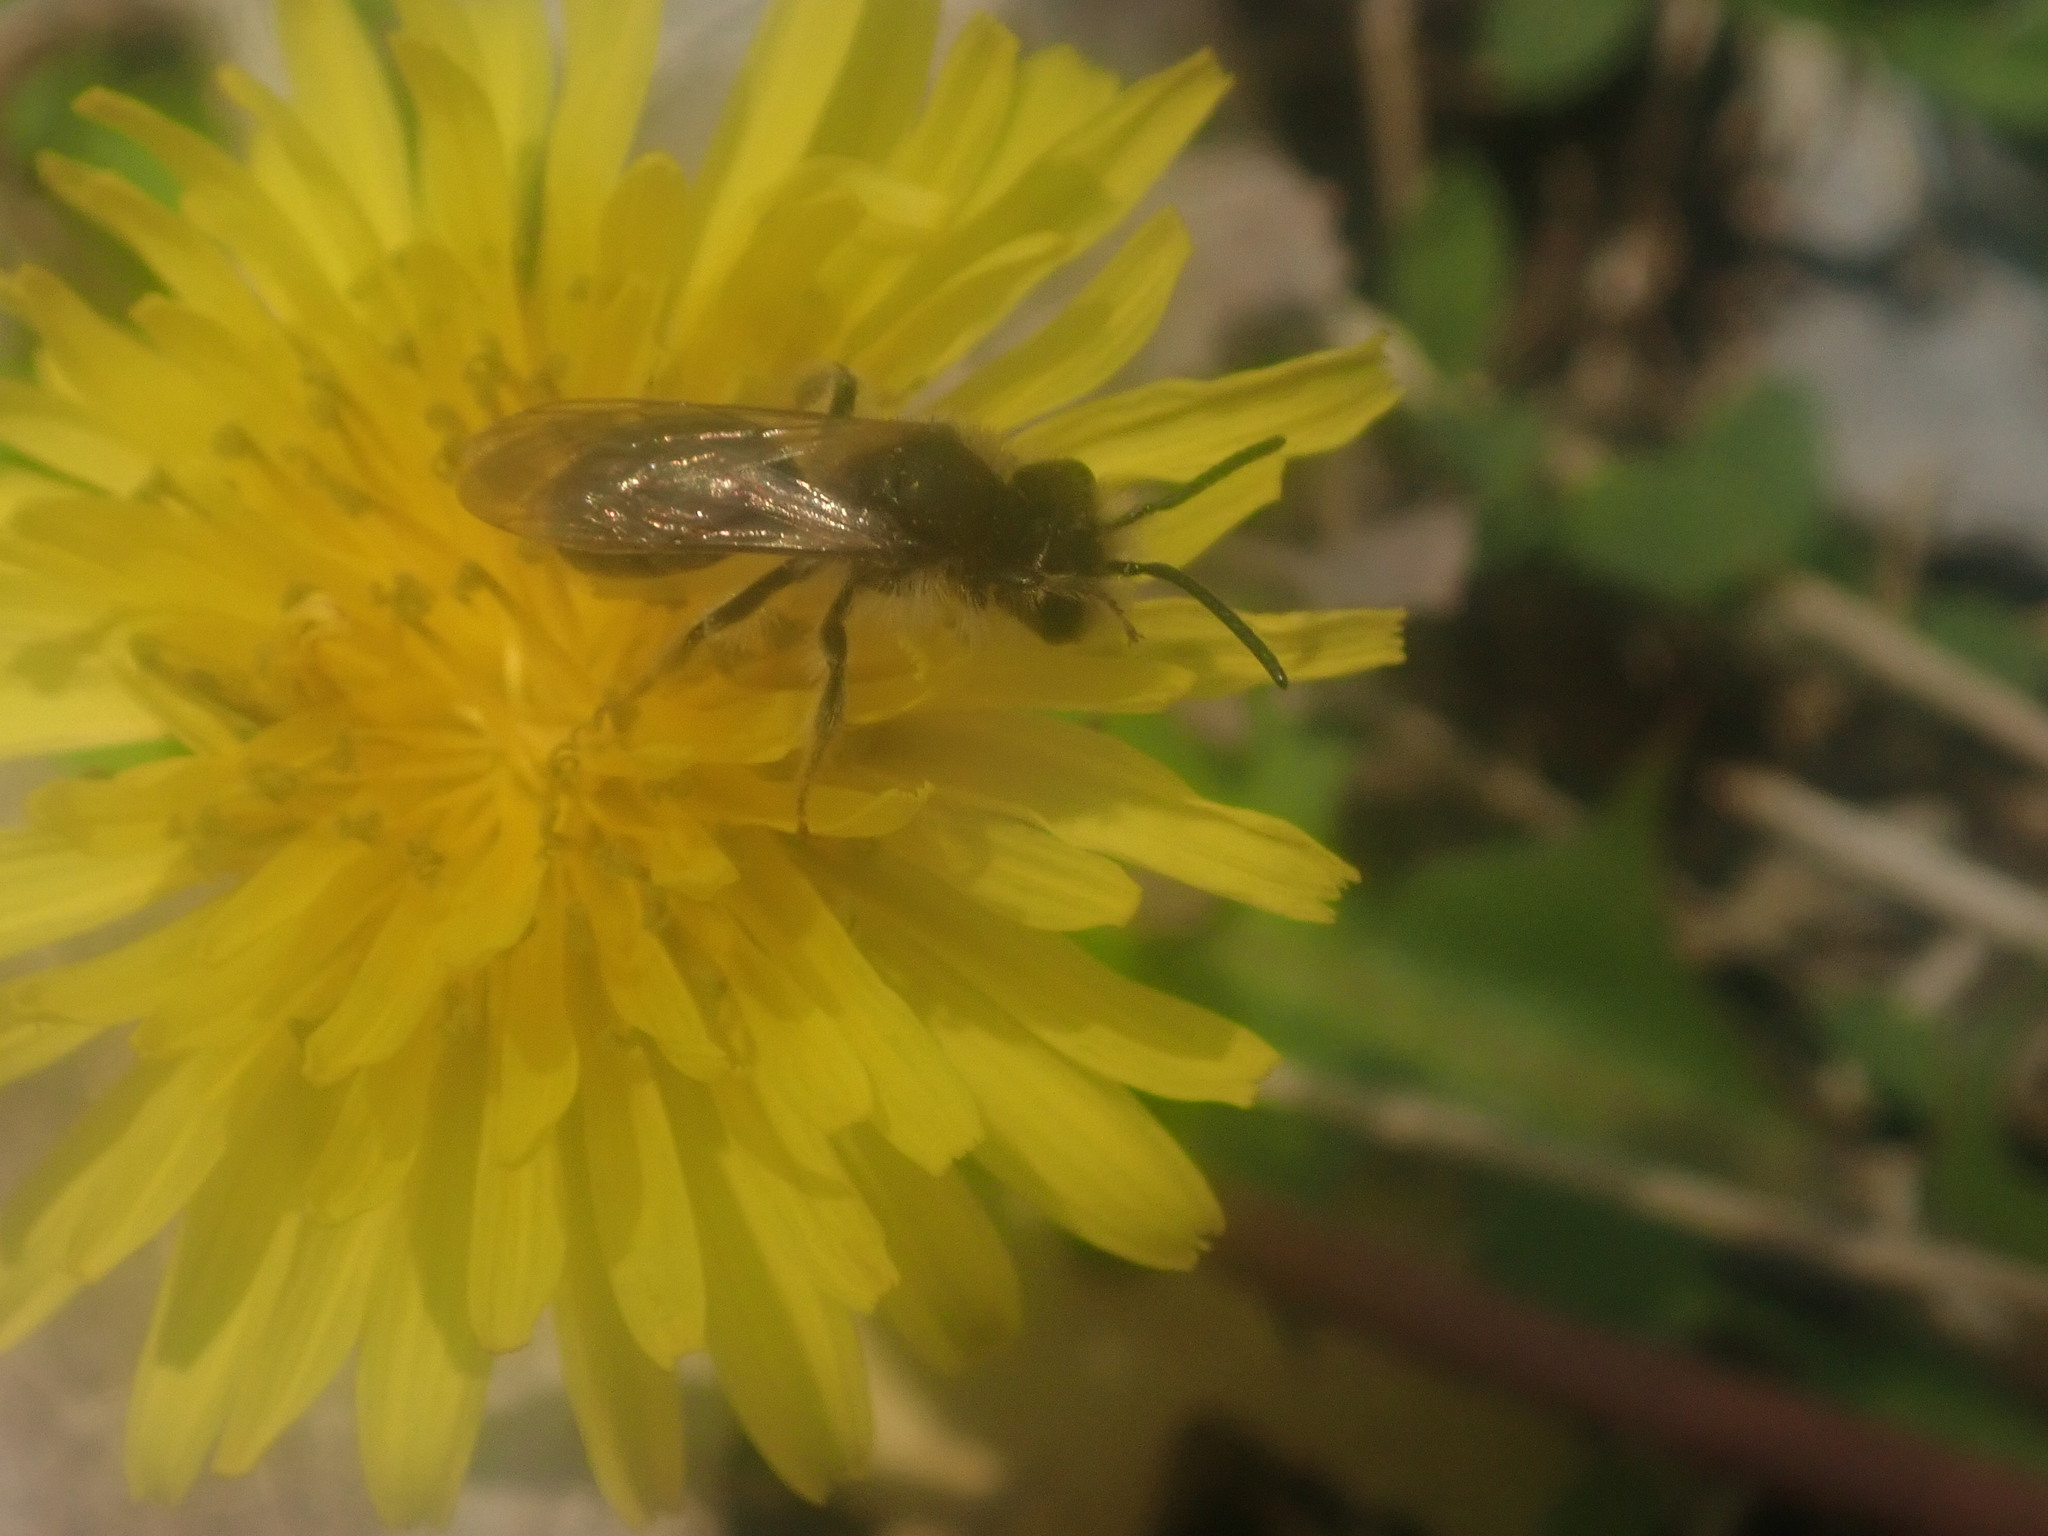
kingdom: Animalia
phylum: Arthropoda
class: Insecta
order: Hymenoptera
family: Andrenidae
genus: Andrena
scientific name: Andrena
